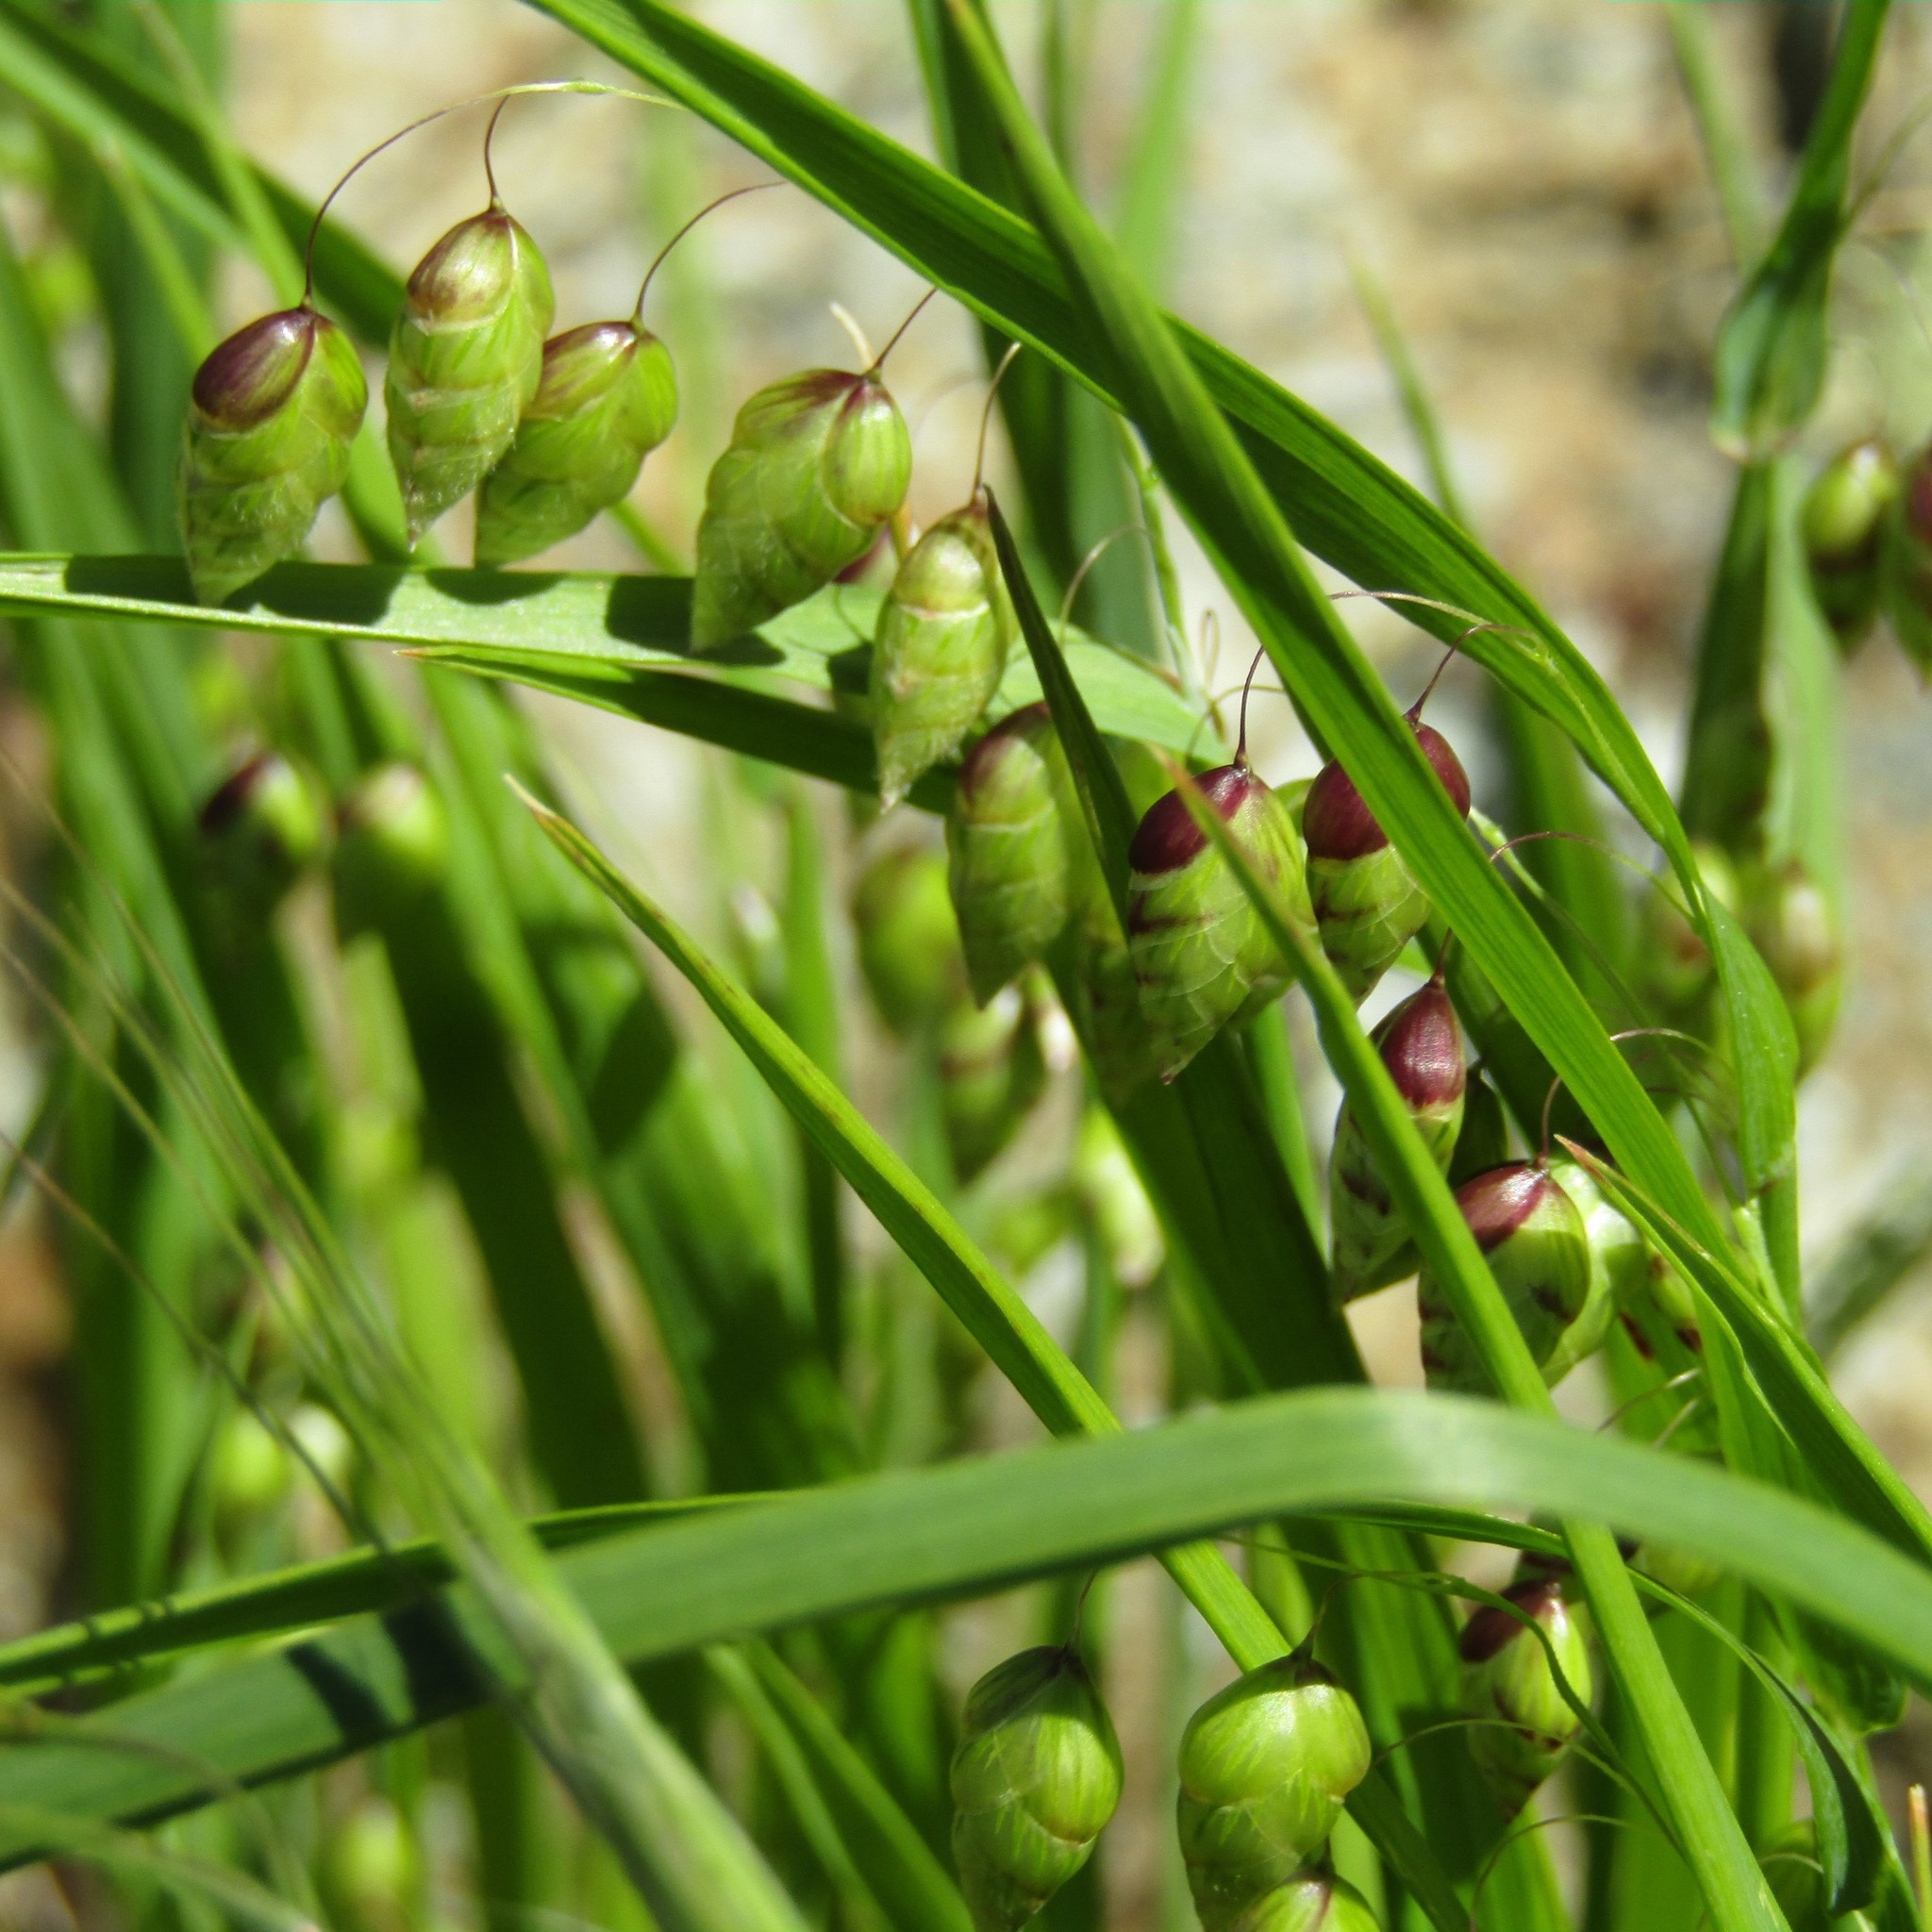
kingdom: Plantae
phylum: Tracheophyta
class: Liliopsida
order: Poales
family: Poaceae
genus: Briza
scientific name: Briza maxima
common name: Big quakinggrass
